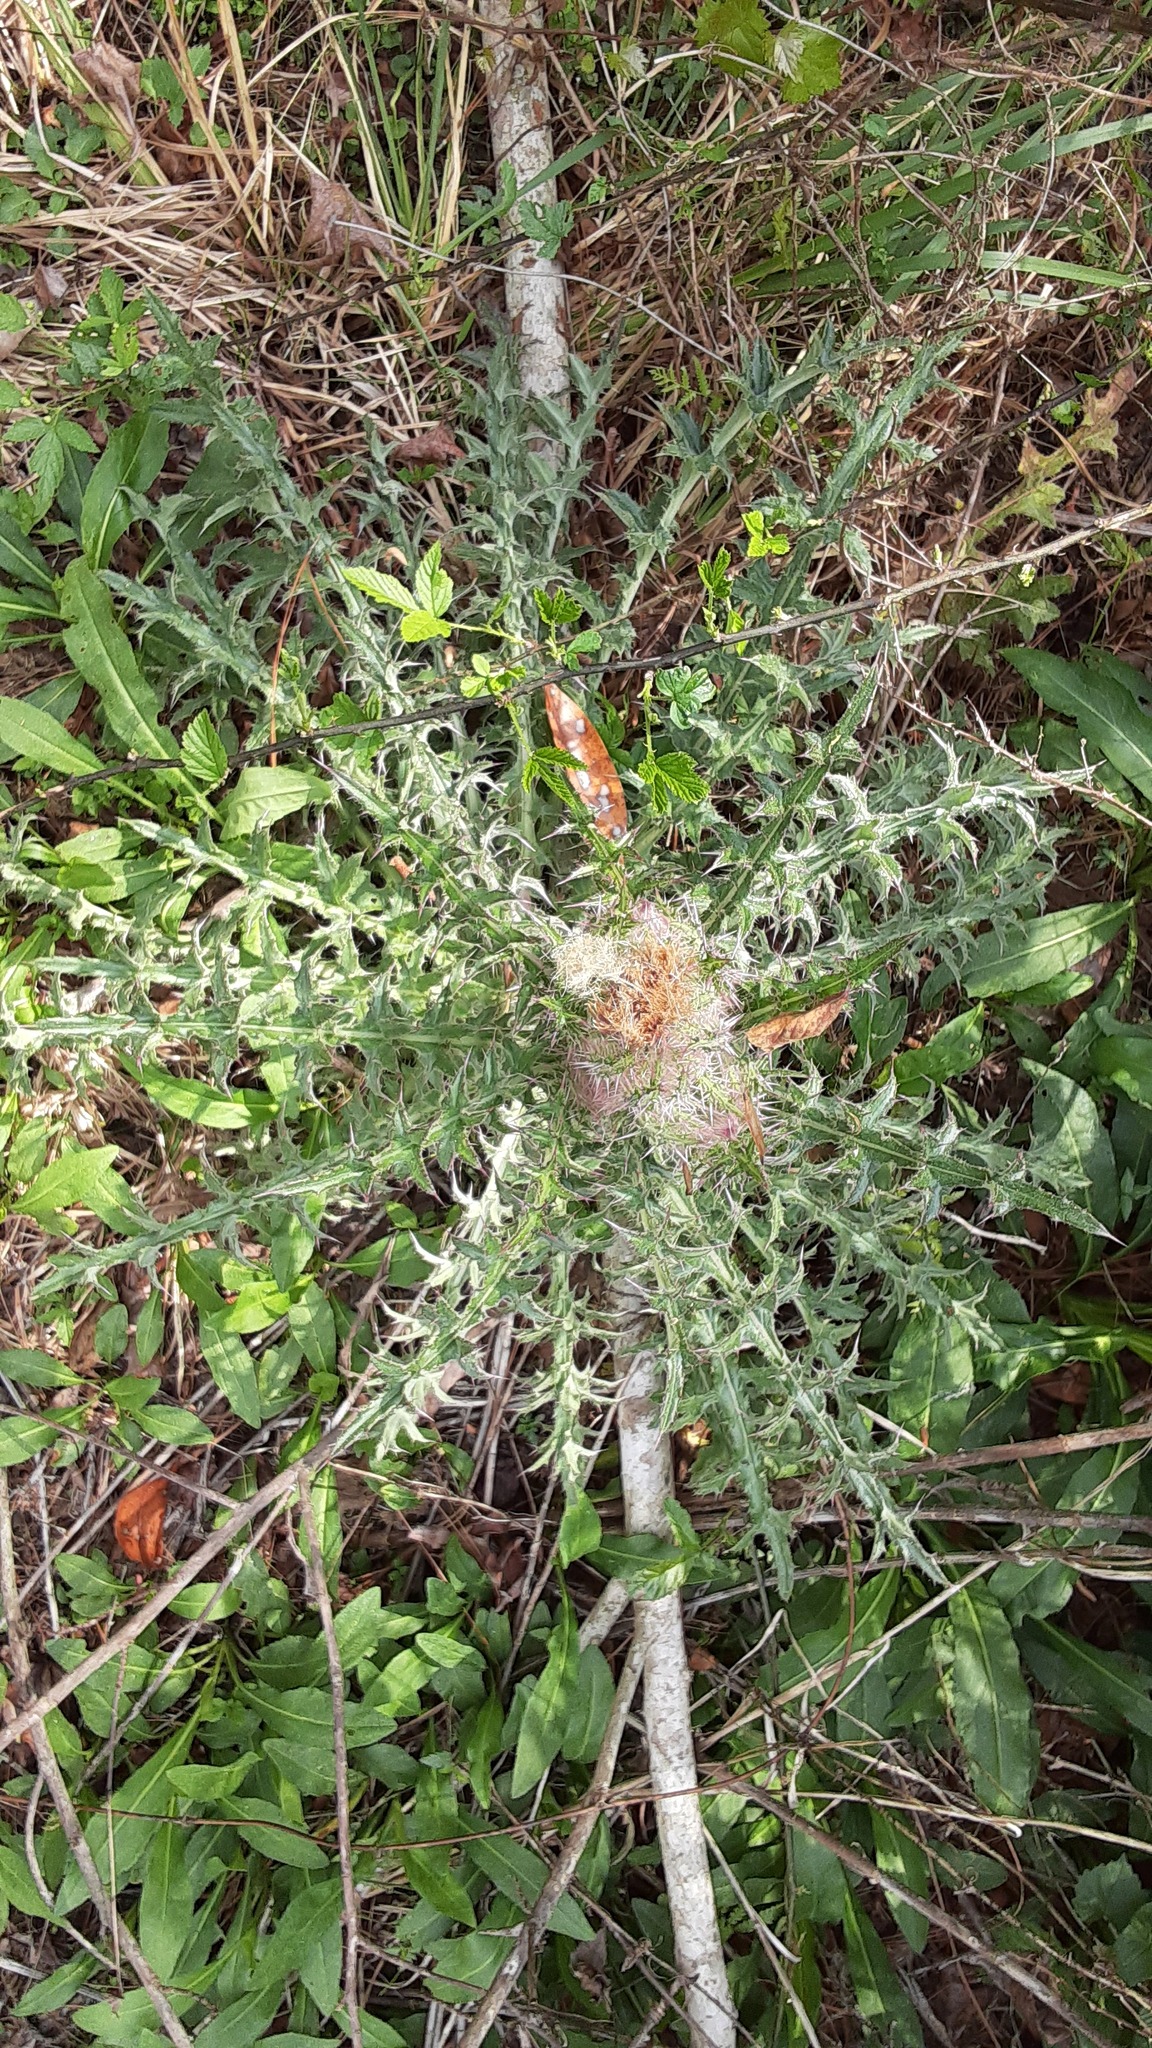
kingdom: Plantae
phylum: Tracheophyta
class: Magnoliopsida
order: Asterales
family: Asteraceae
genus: Cirsium
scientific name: Cirsium horridulum
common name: Bristly thistle
